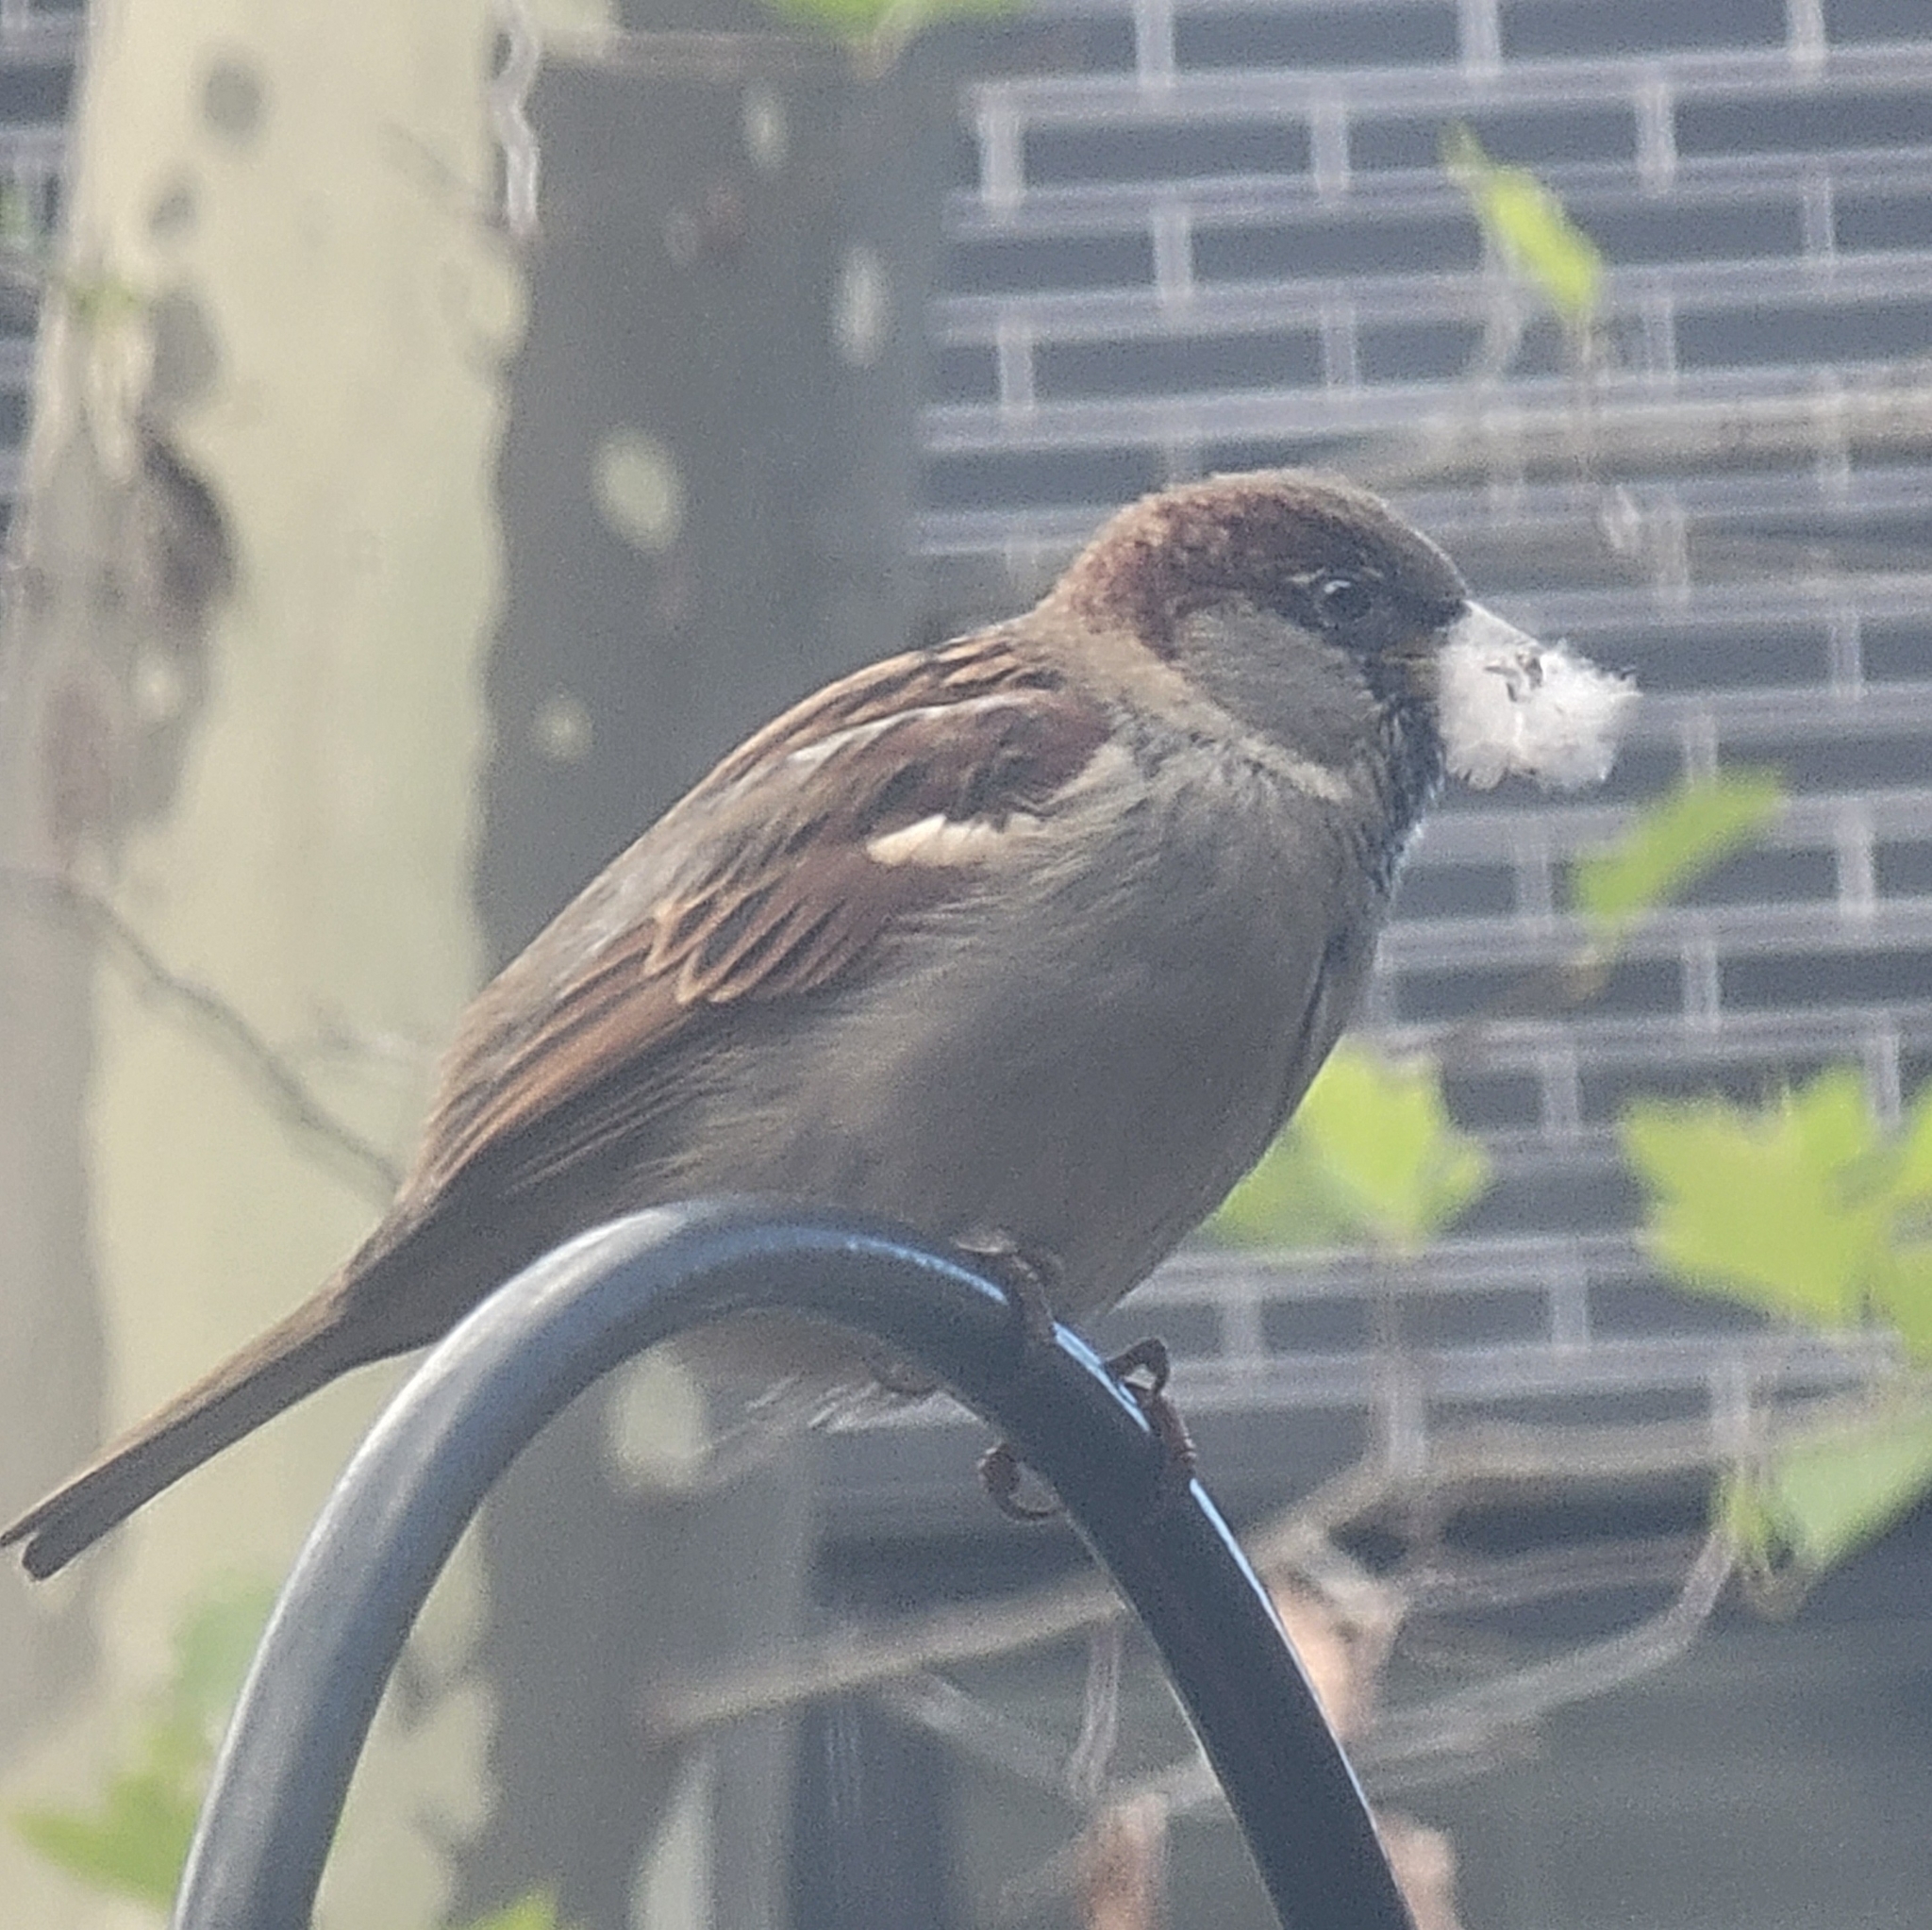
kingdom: Animalia
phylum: Chordata
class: Aves
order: Passeriformes
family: Passeridae
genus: Passer
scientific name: Passer domesticus
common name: House sparrow
